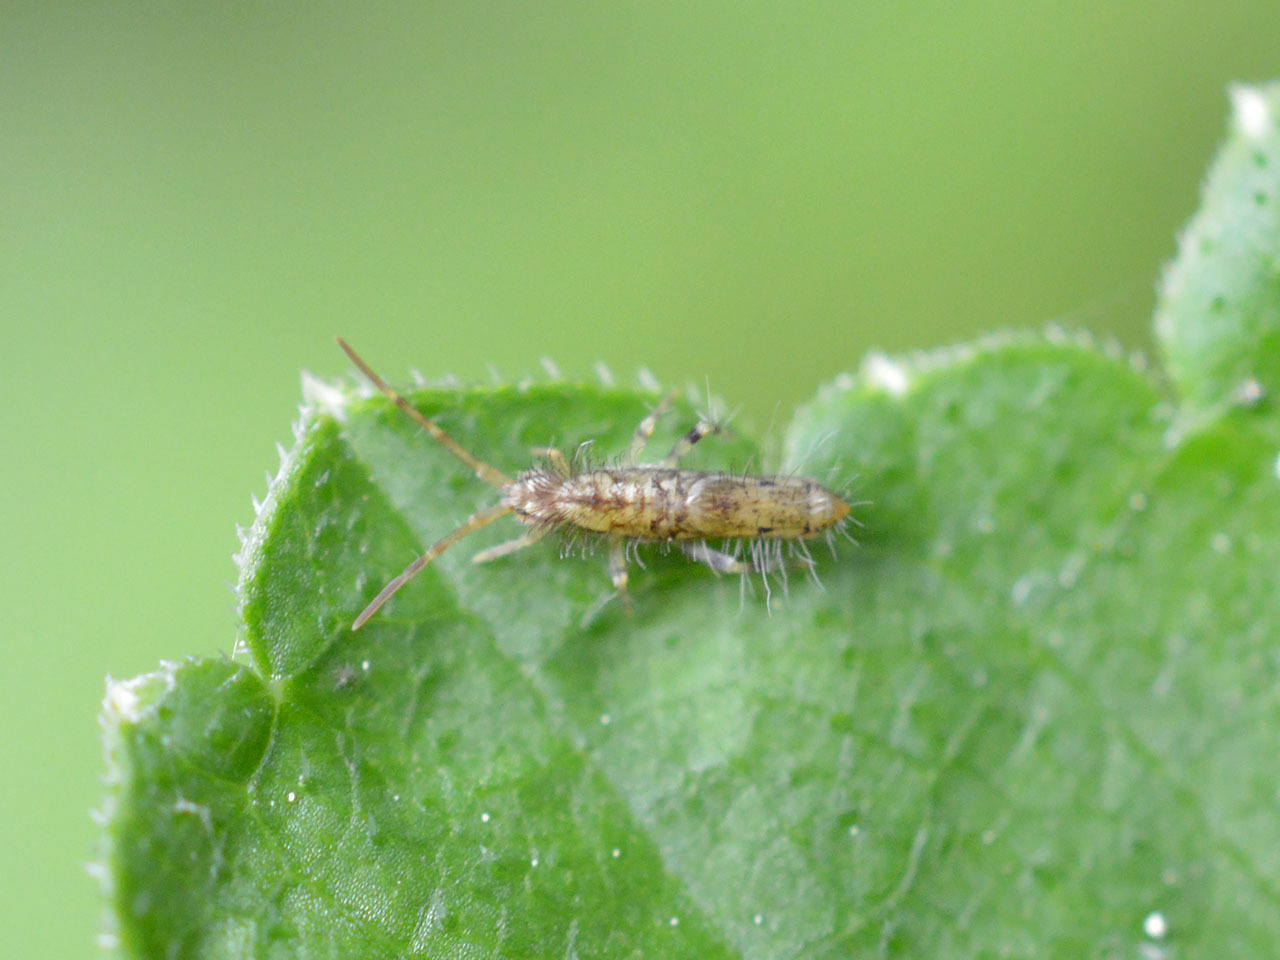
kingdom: Animalia
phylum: Arthropoda
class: Collembola
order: Entomobryomorpha
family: Entomobryidae
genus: Entomobrya
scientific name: Entomobrya dorsalis
